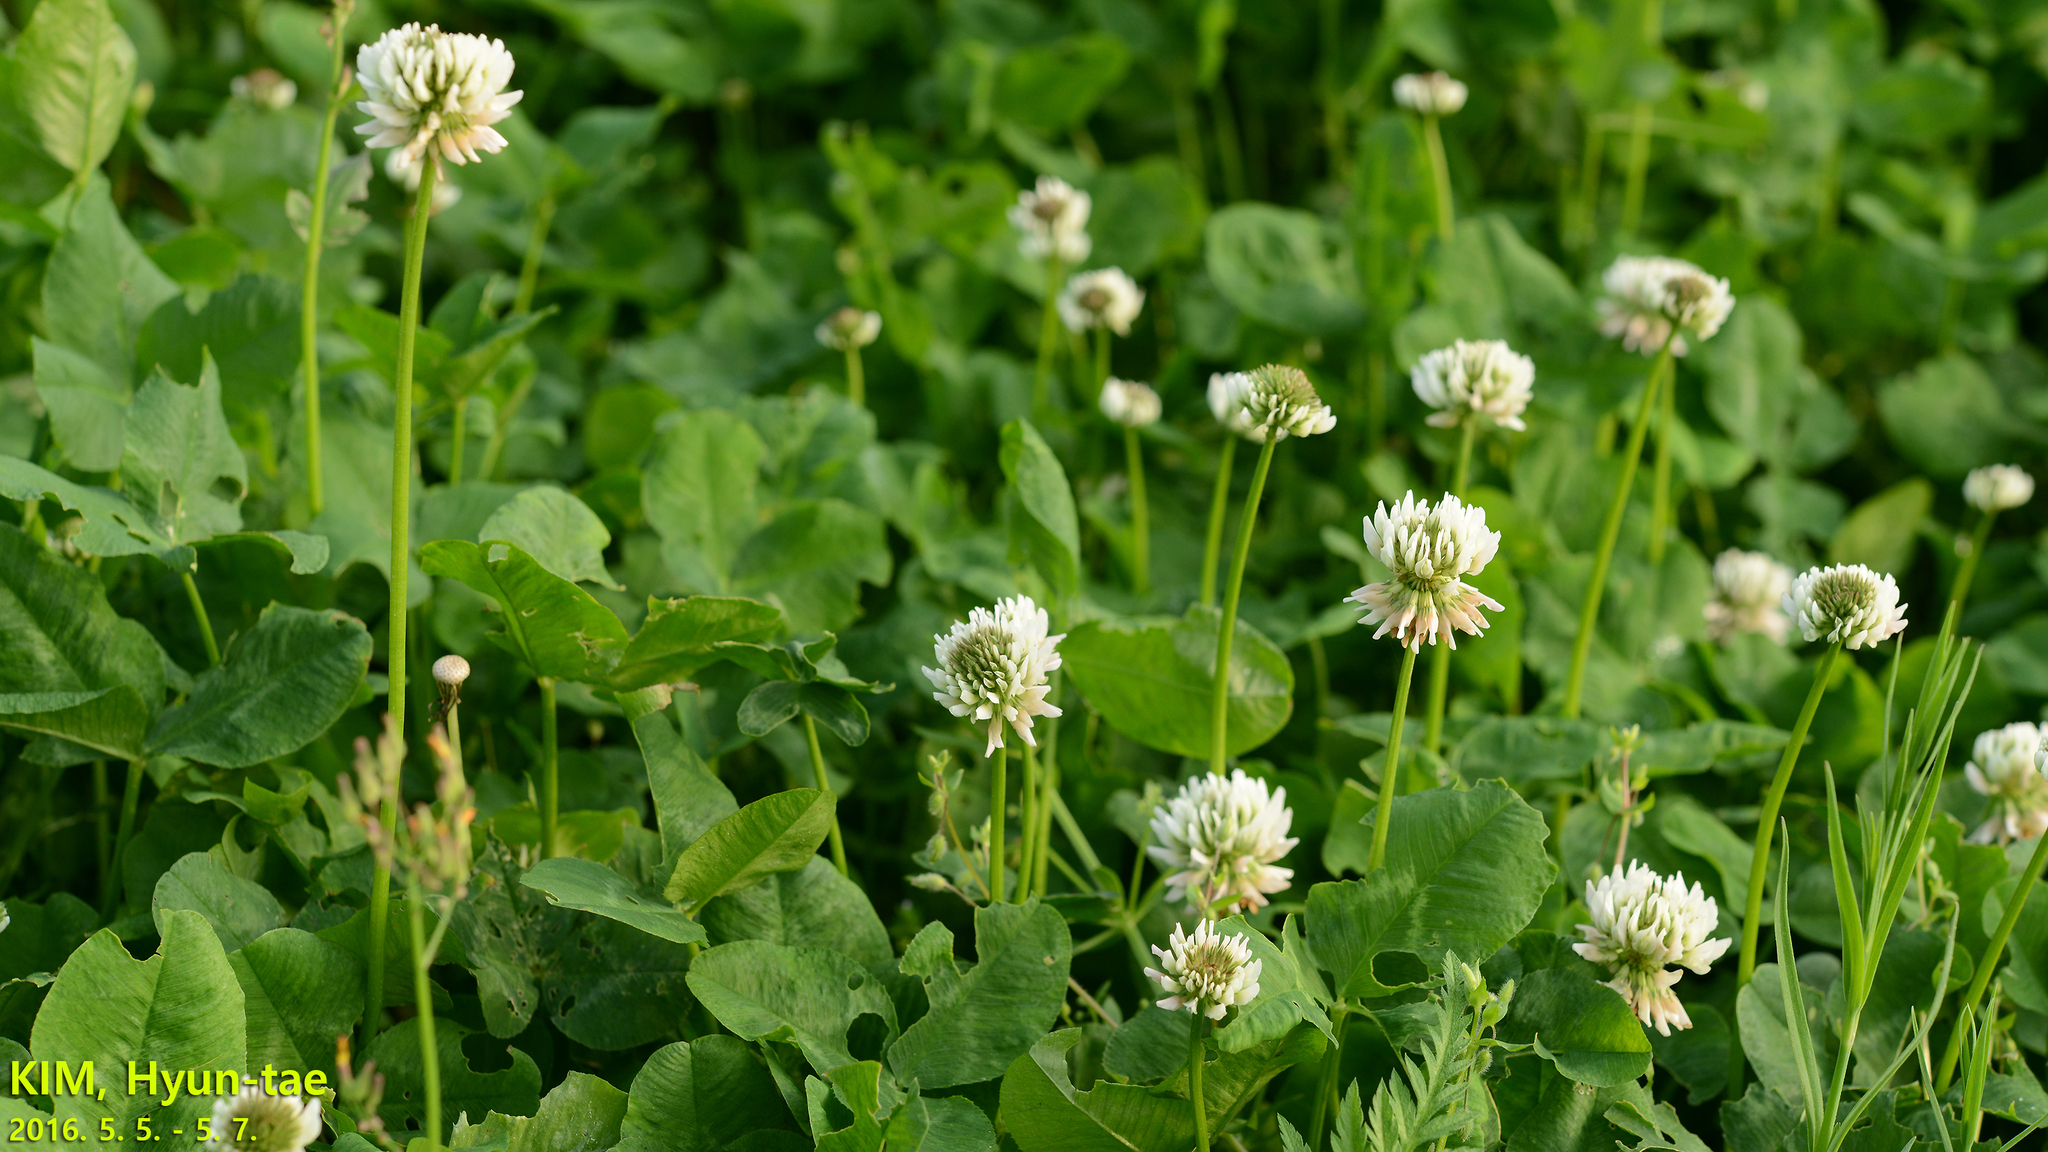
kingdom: Plantae
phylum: Tracheophyta
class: Magnoliopsida
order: Fabales
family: Fabaceae
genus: Trifolium
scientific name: Trifolium repens
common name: White clover
